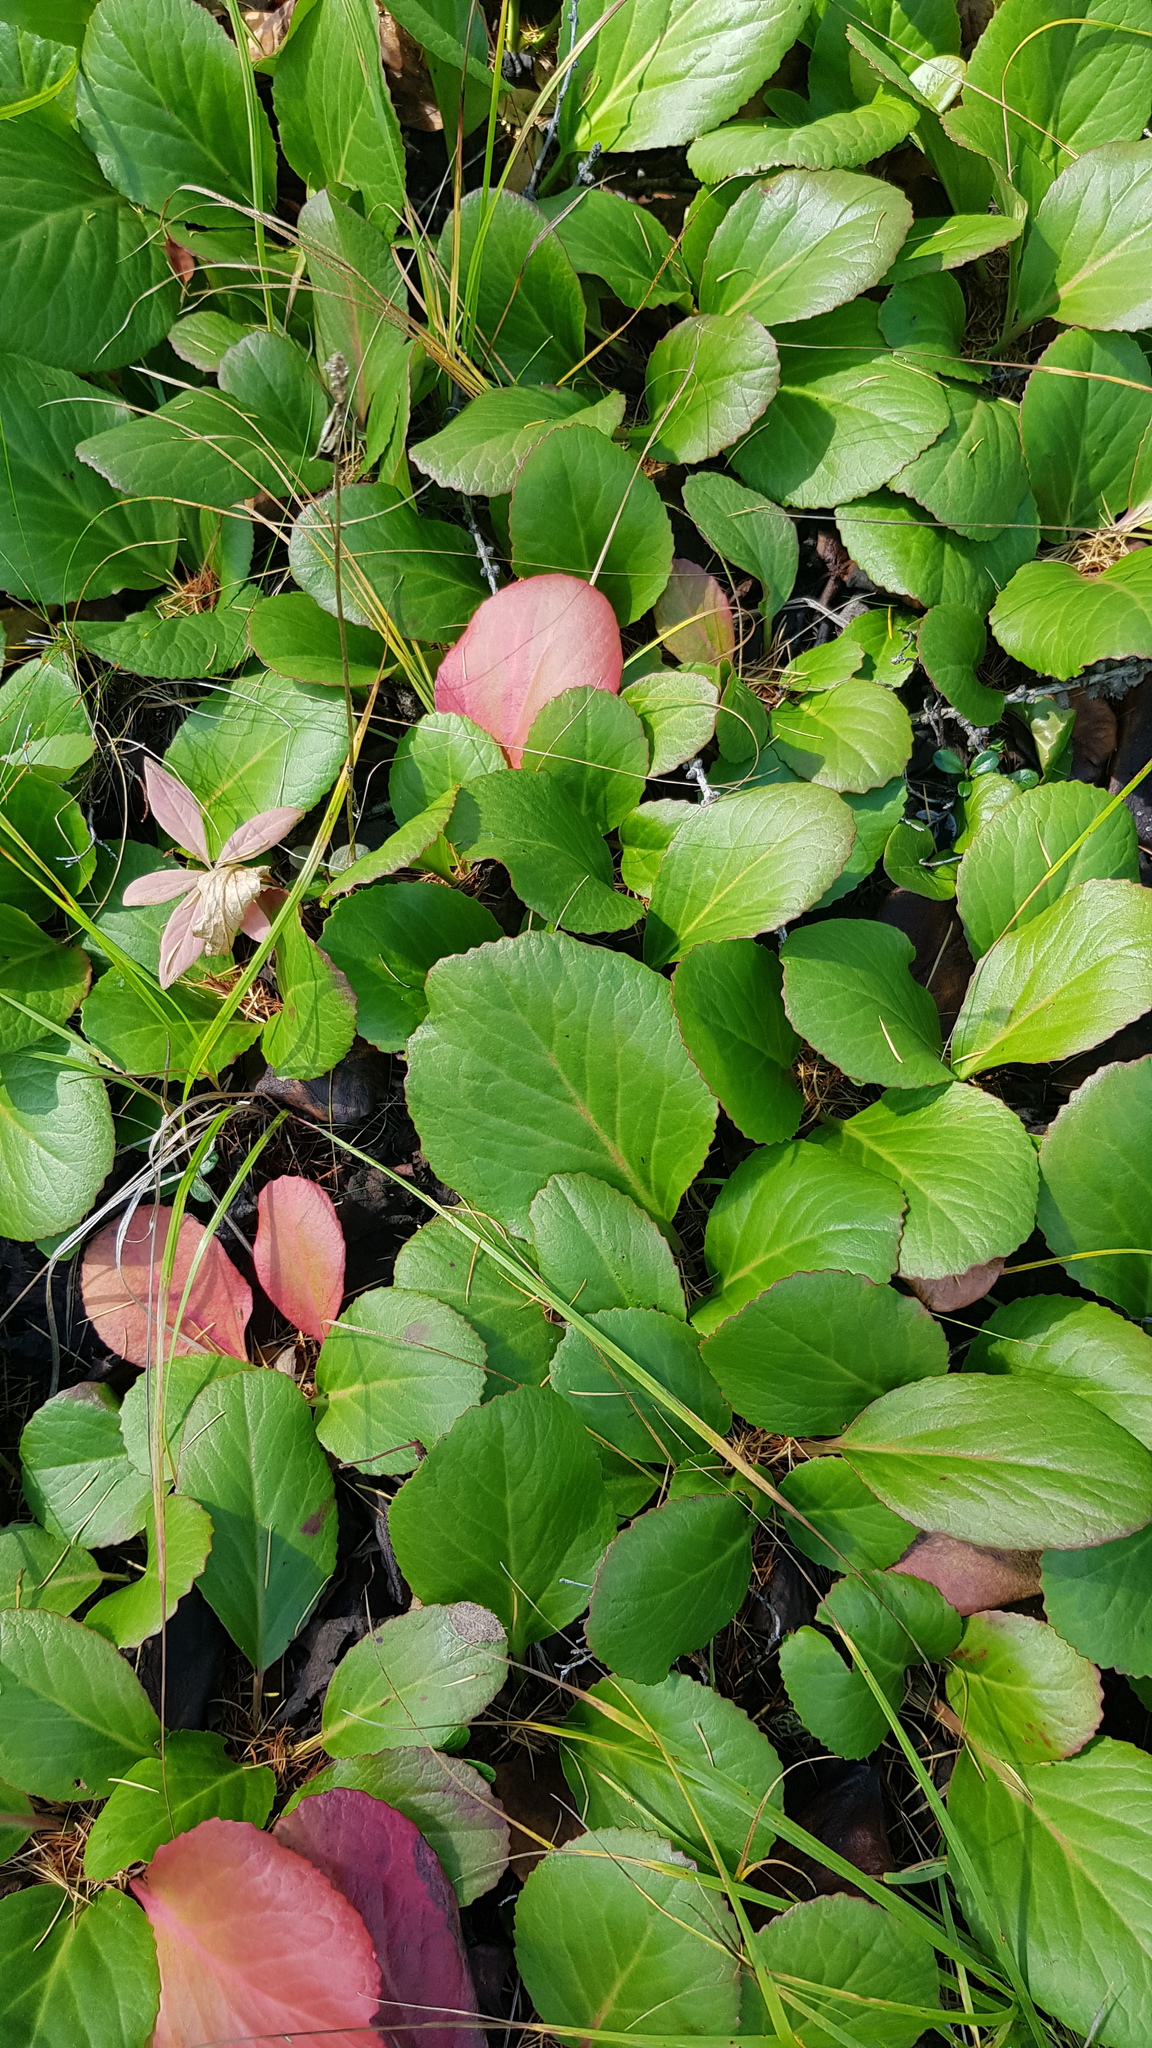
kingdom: Plantae
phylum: Tracheophyta
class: Magnoliopsida
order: Saxifragales
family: Saxifragaceae
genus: Bergenia
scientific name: Bergenia crassifolia
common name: Elephant-ears
